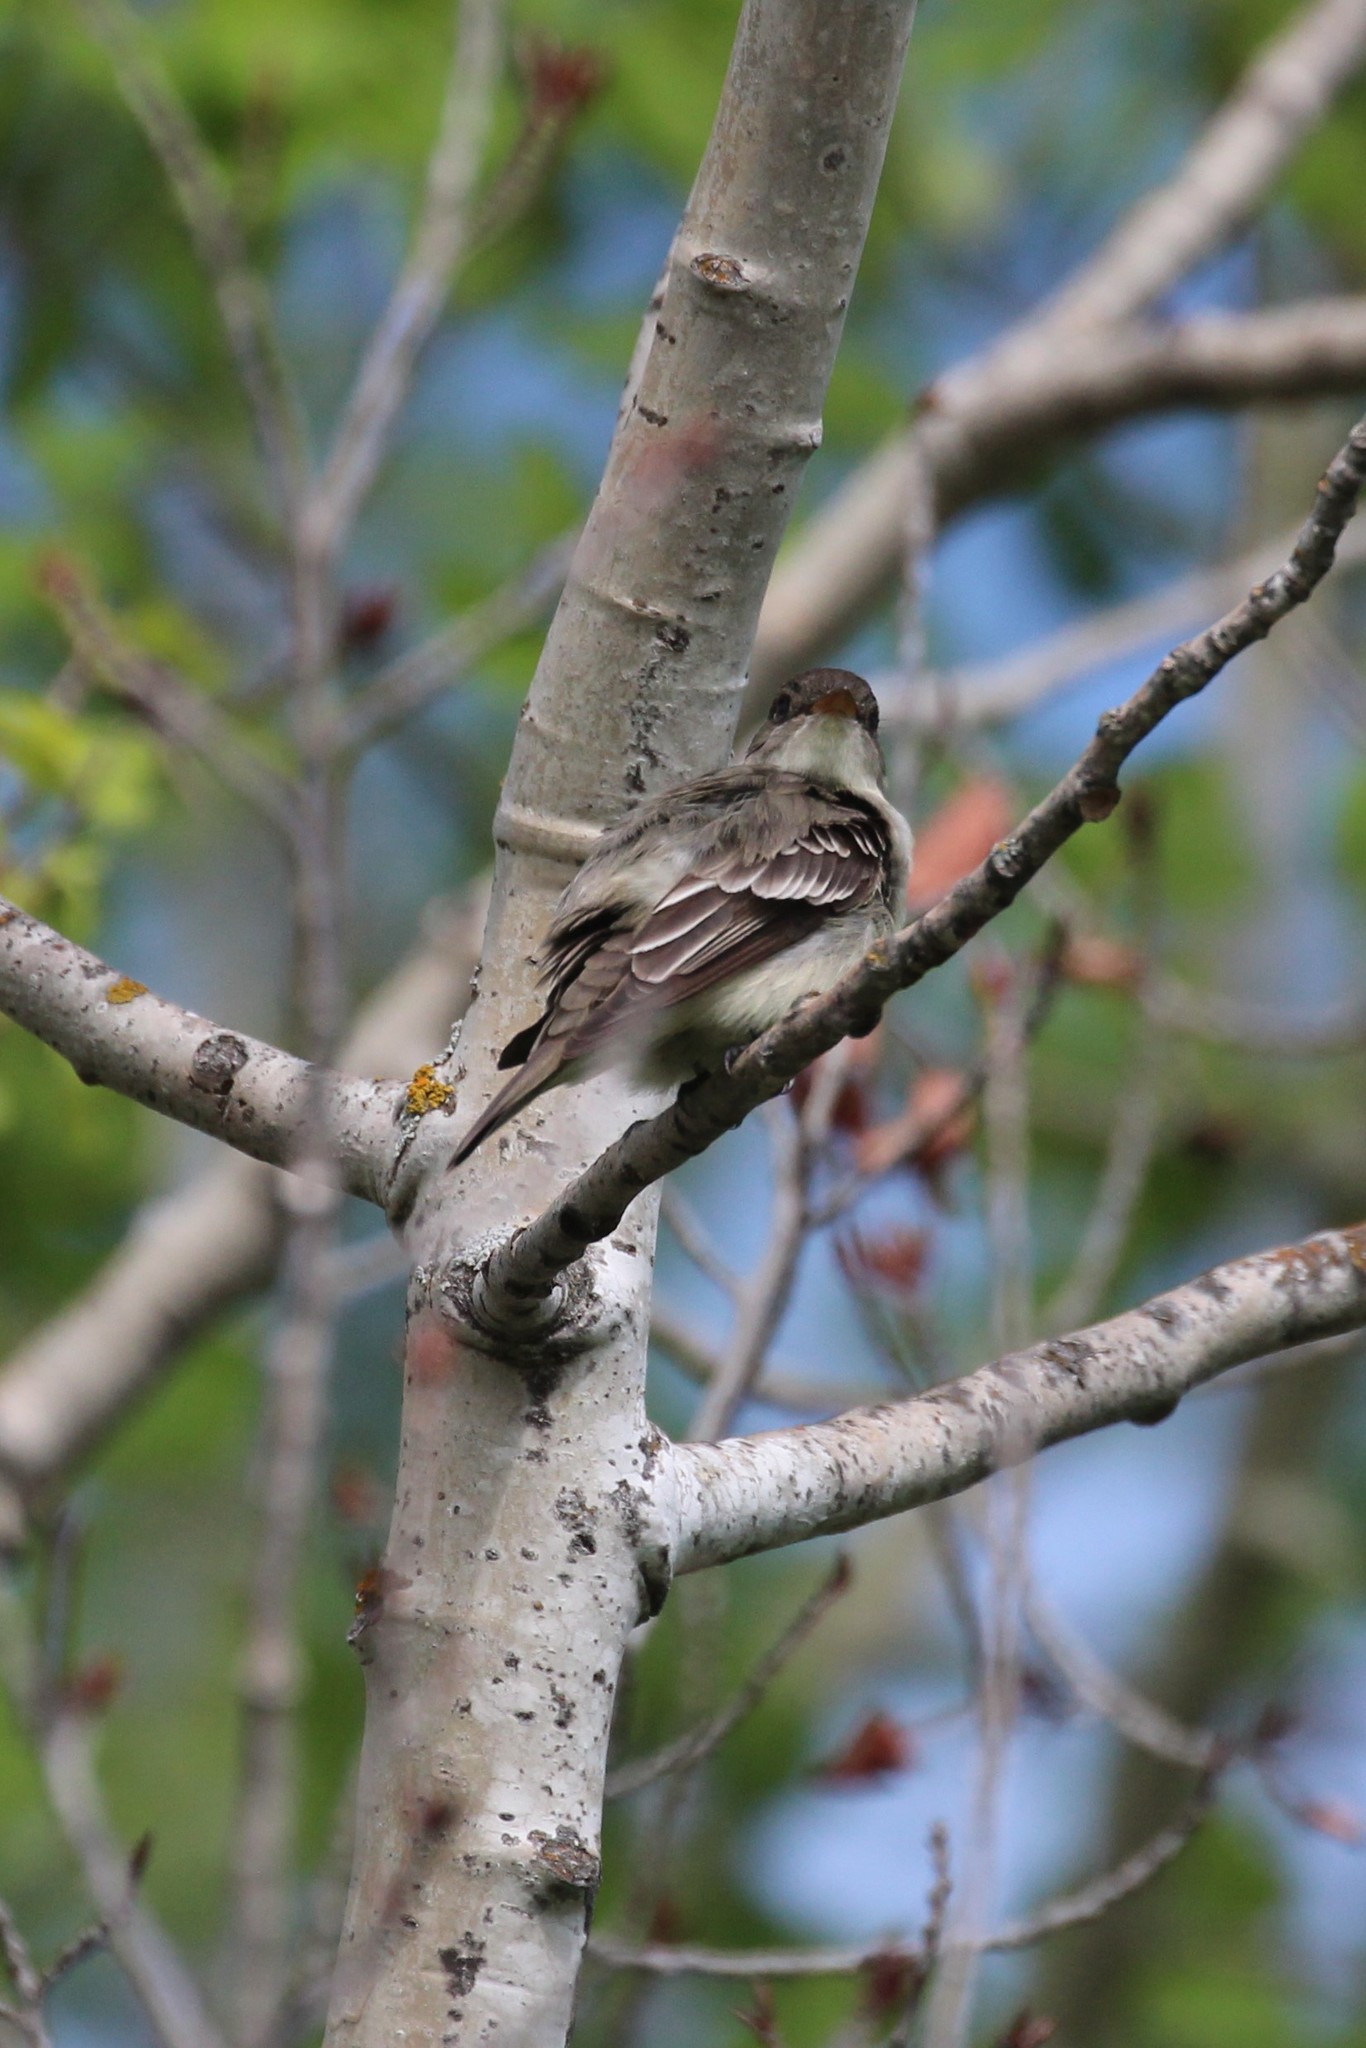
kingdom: Animalia
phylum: Chordata
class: Aves
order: Passeriformes
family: Tyrannidae
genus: Contopus
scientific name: Contopus virens
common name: Eastern wood-pewee
